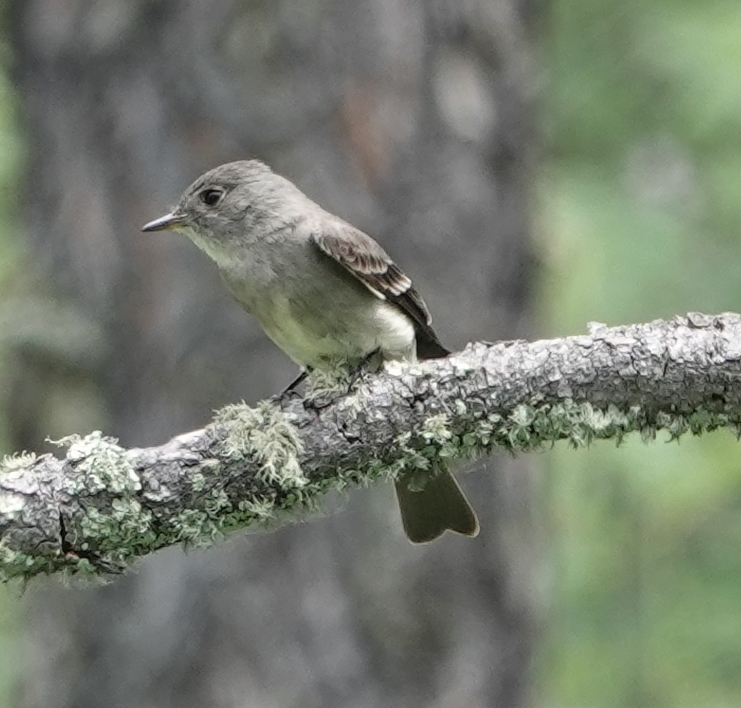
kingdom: Animalia
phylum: Chordata
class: Aves
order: Passeriformes
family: Tyrannidae
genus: Contopus
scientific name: Contopus sordidulus
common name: Western wood-pewee
